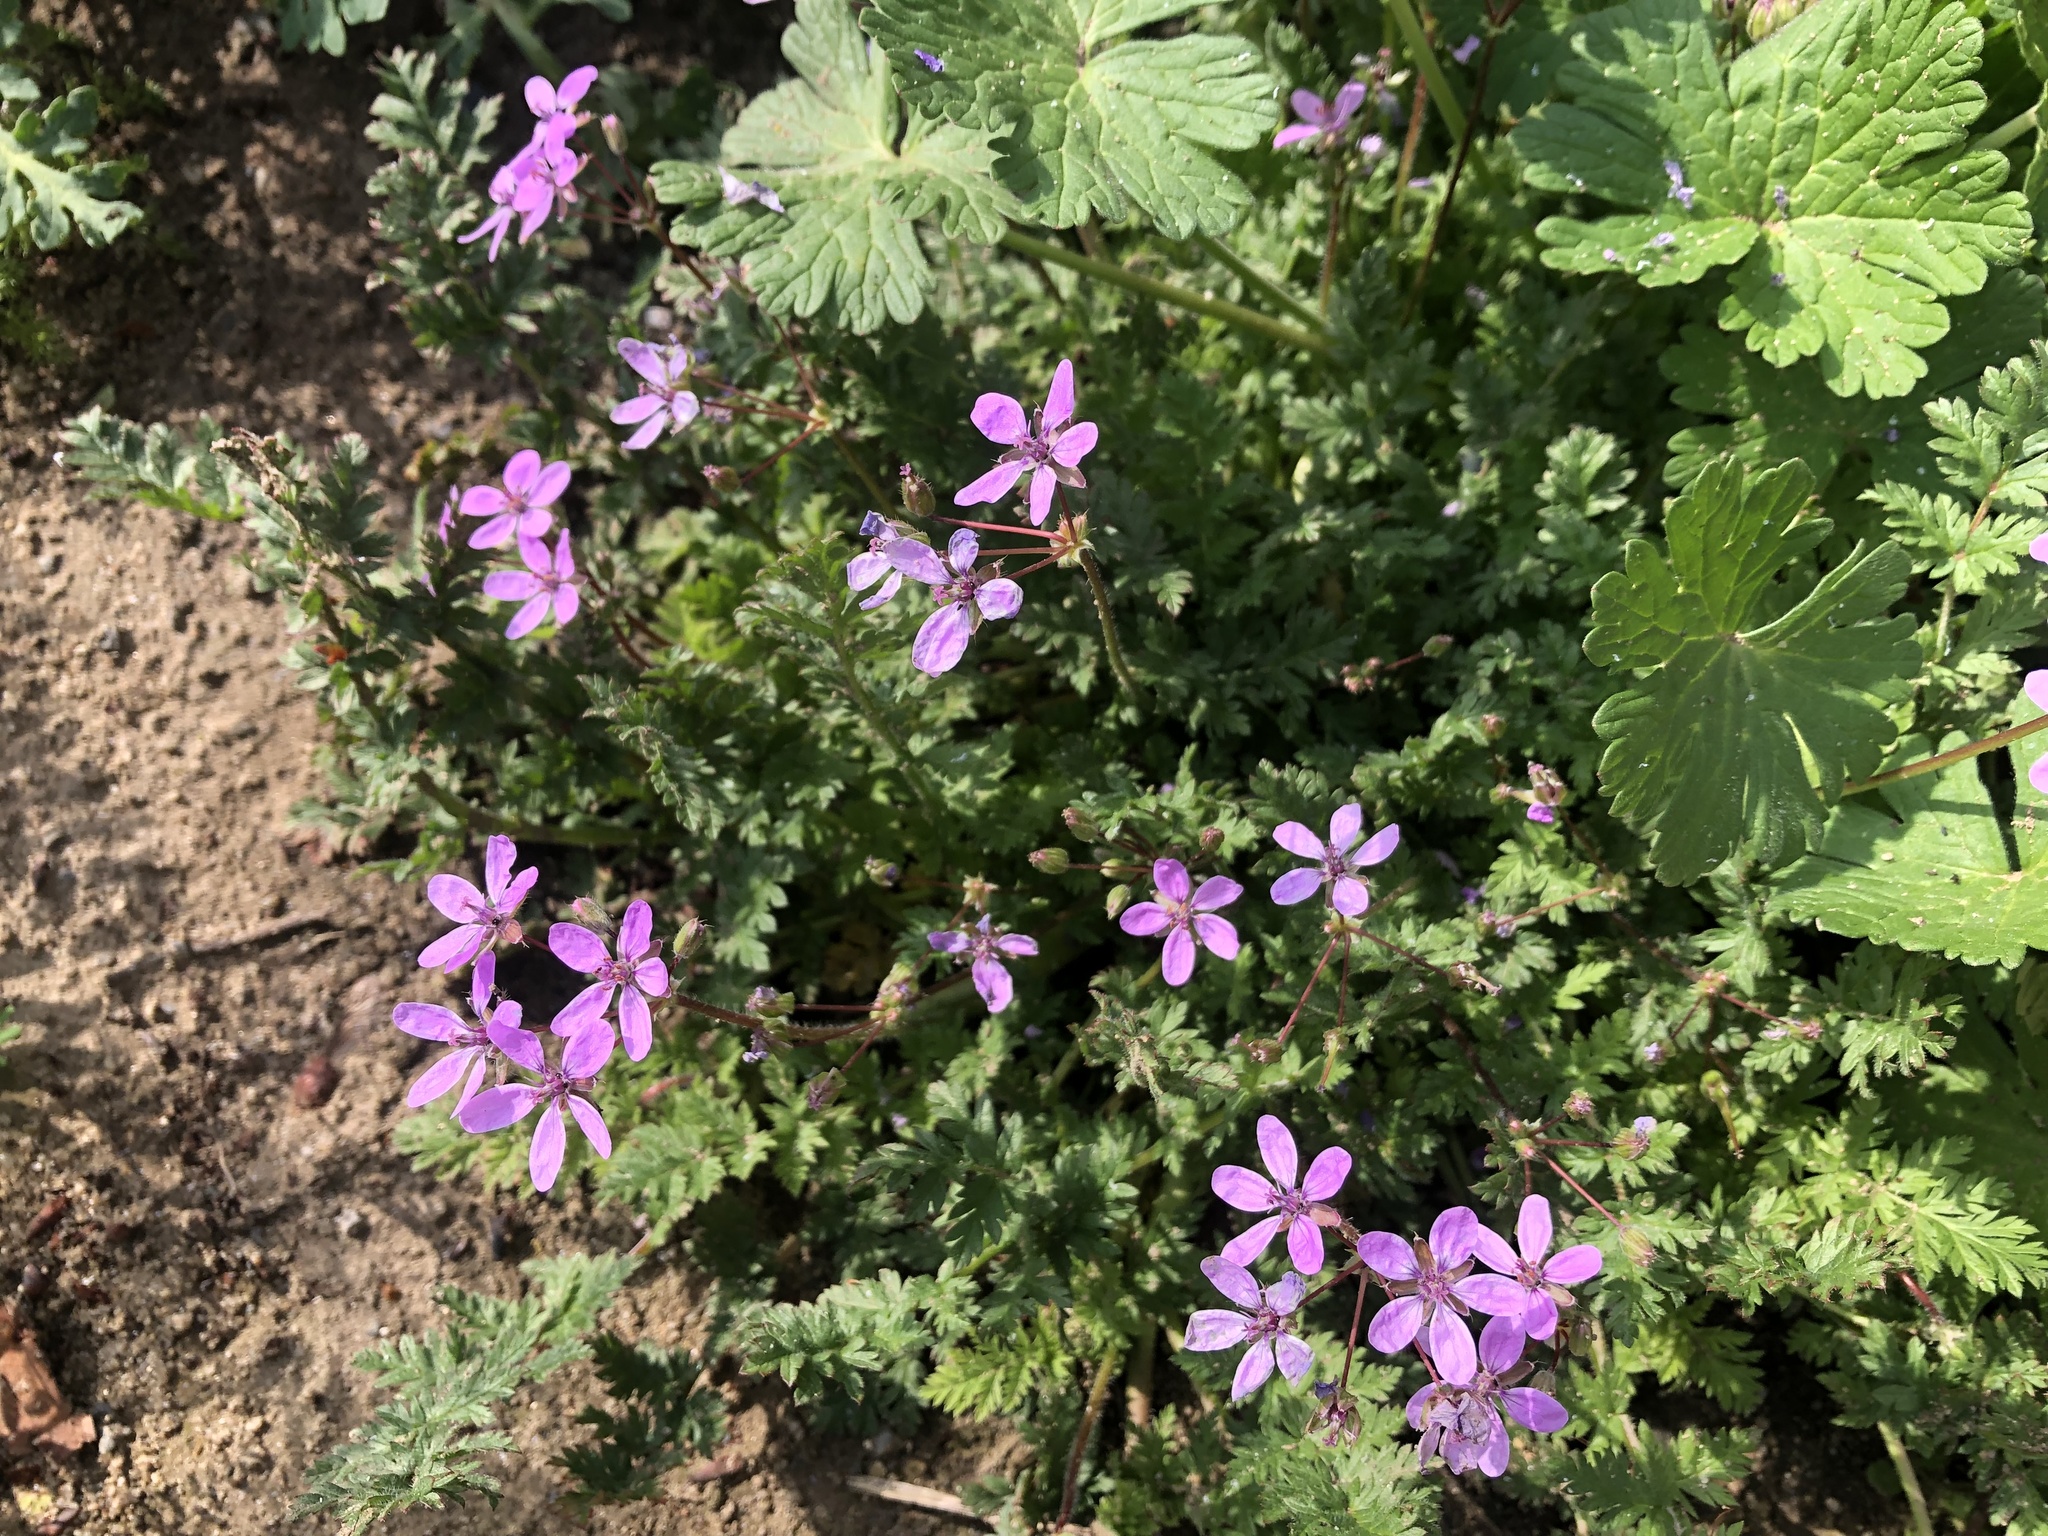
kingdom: Plantae
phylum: Tracheophyta
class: Magnoliopsida
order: Geraniales
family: Geraniaceae
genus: Erodium
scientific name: Erodium cicutarium
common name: Common stork's-bill
